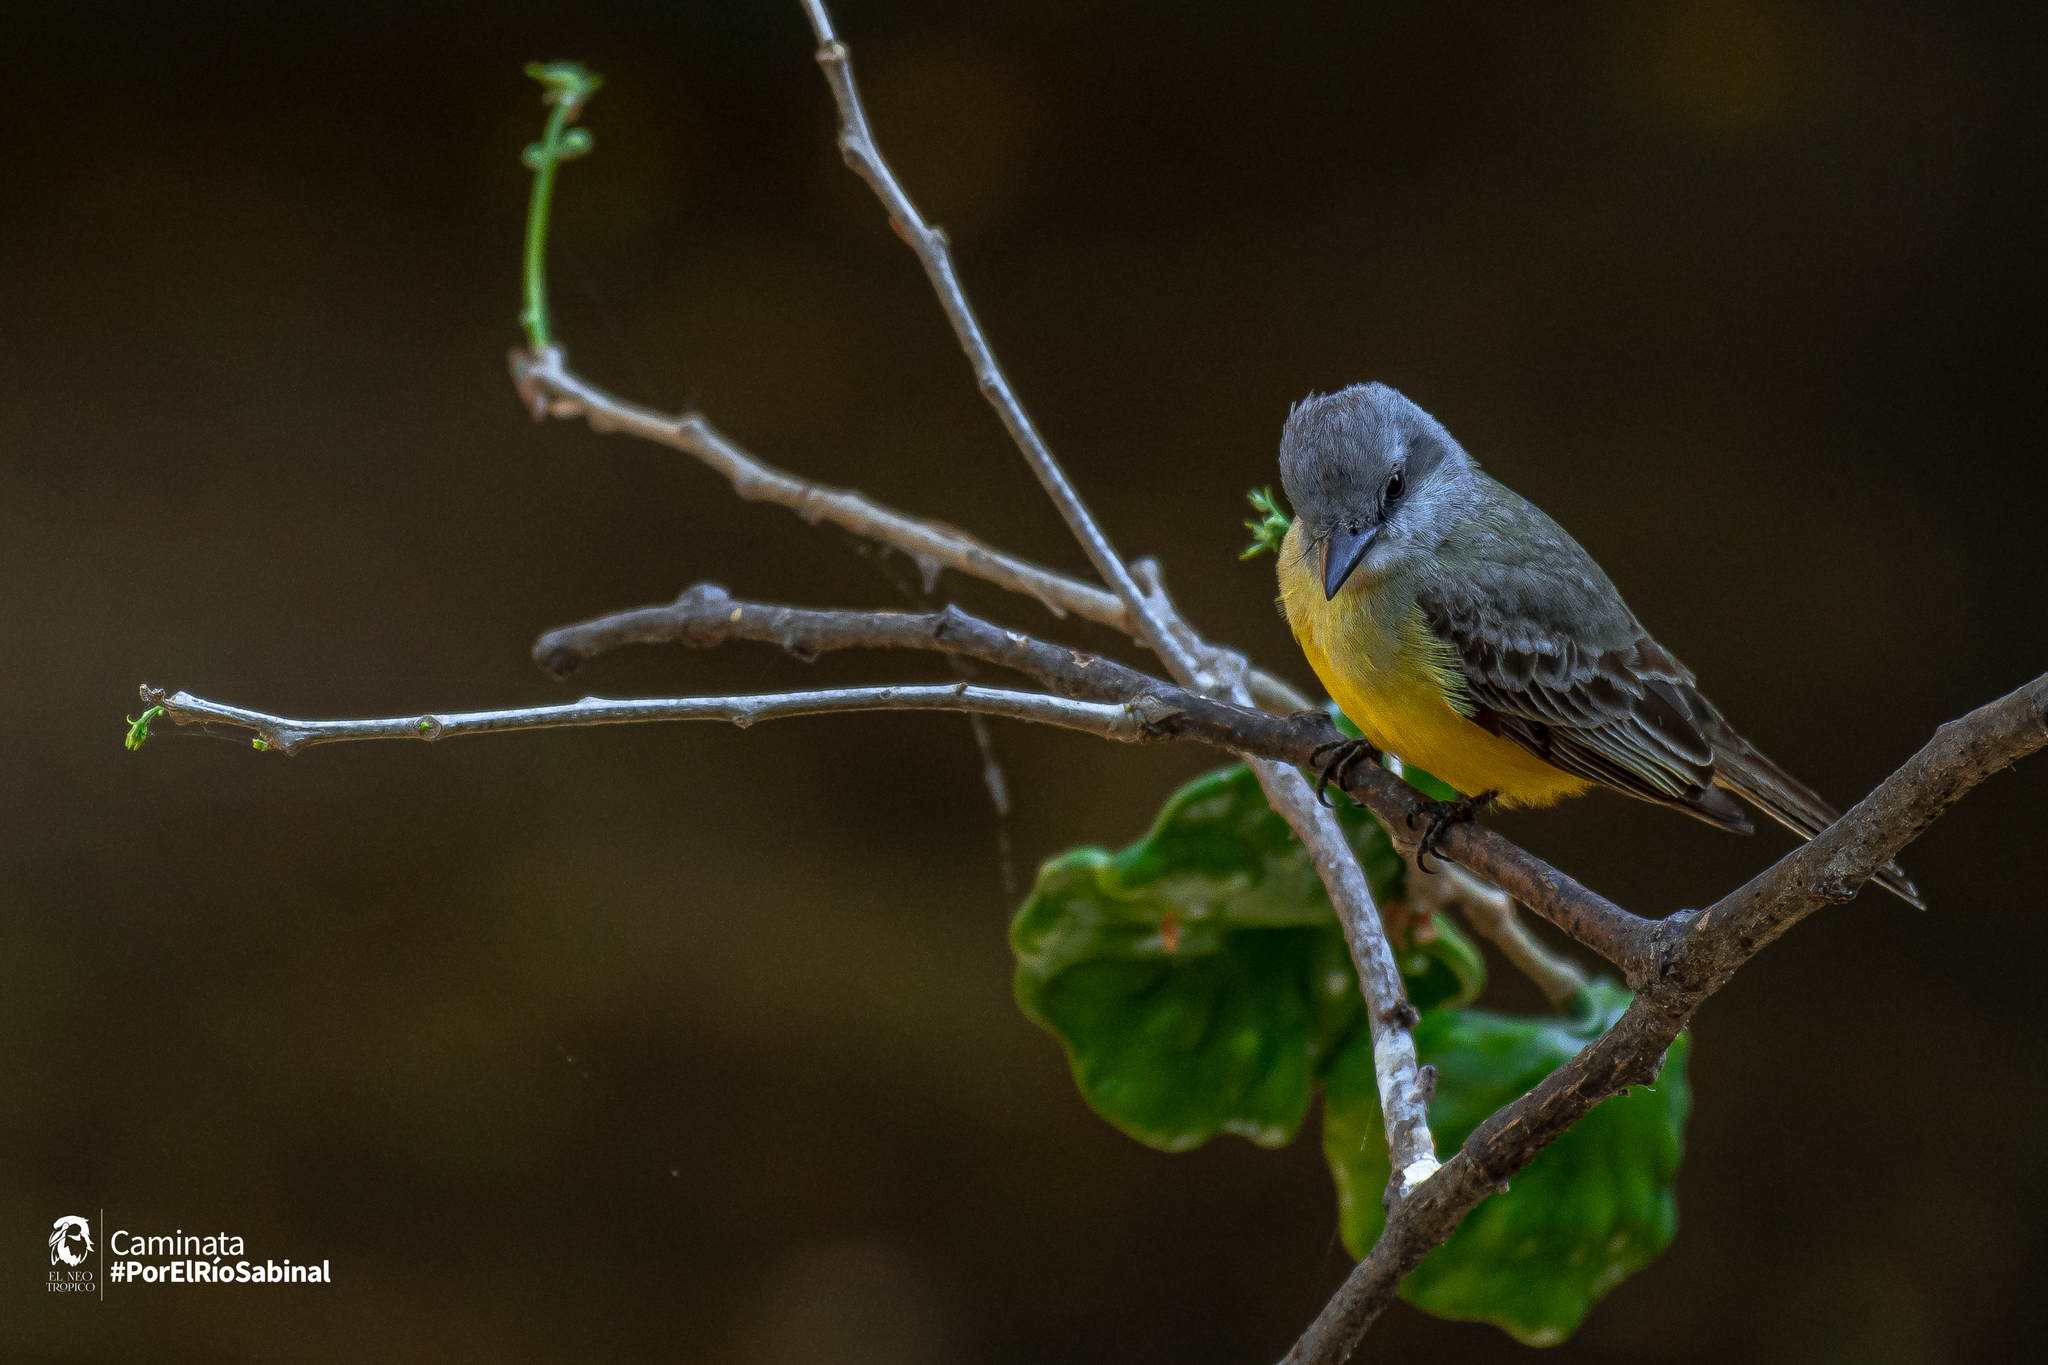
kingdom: Animalia
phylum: Chordata
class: Aves
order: Passeriformes
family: Tyrannidae
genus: Tyrannus
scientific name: Tyrannus melancholicus
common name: Tropical kingbird
